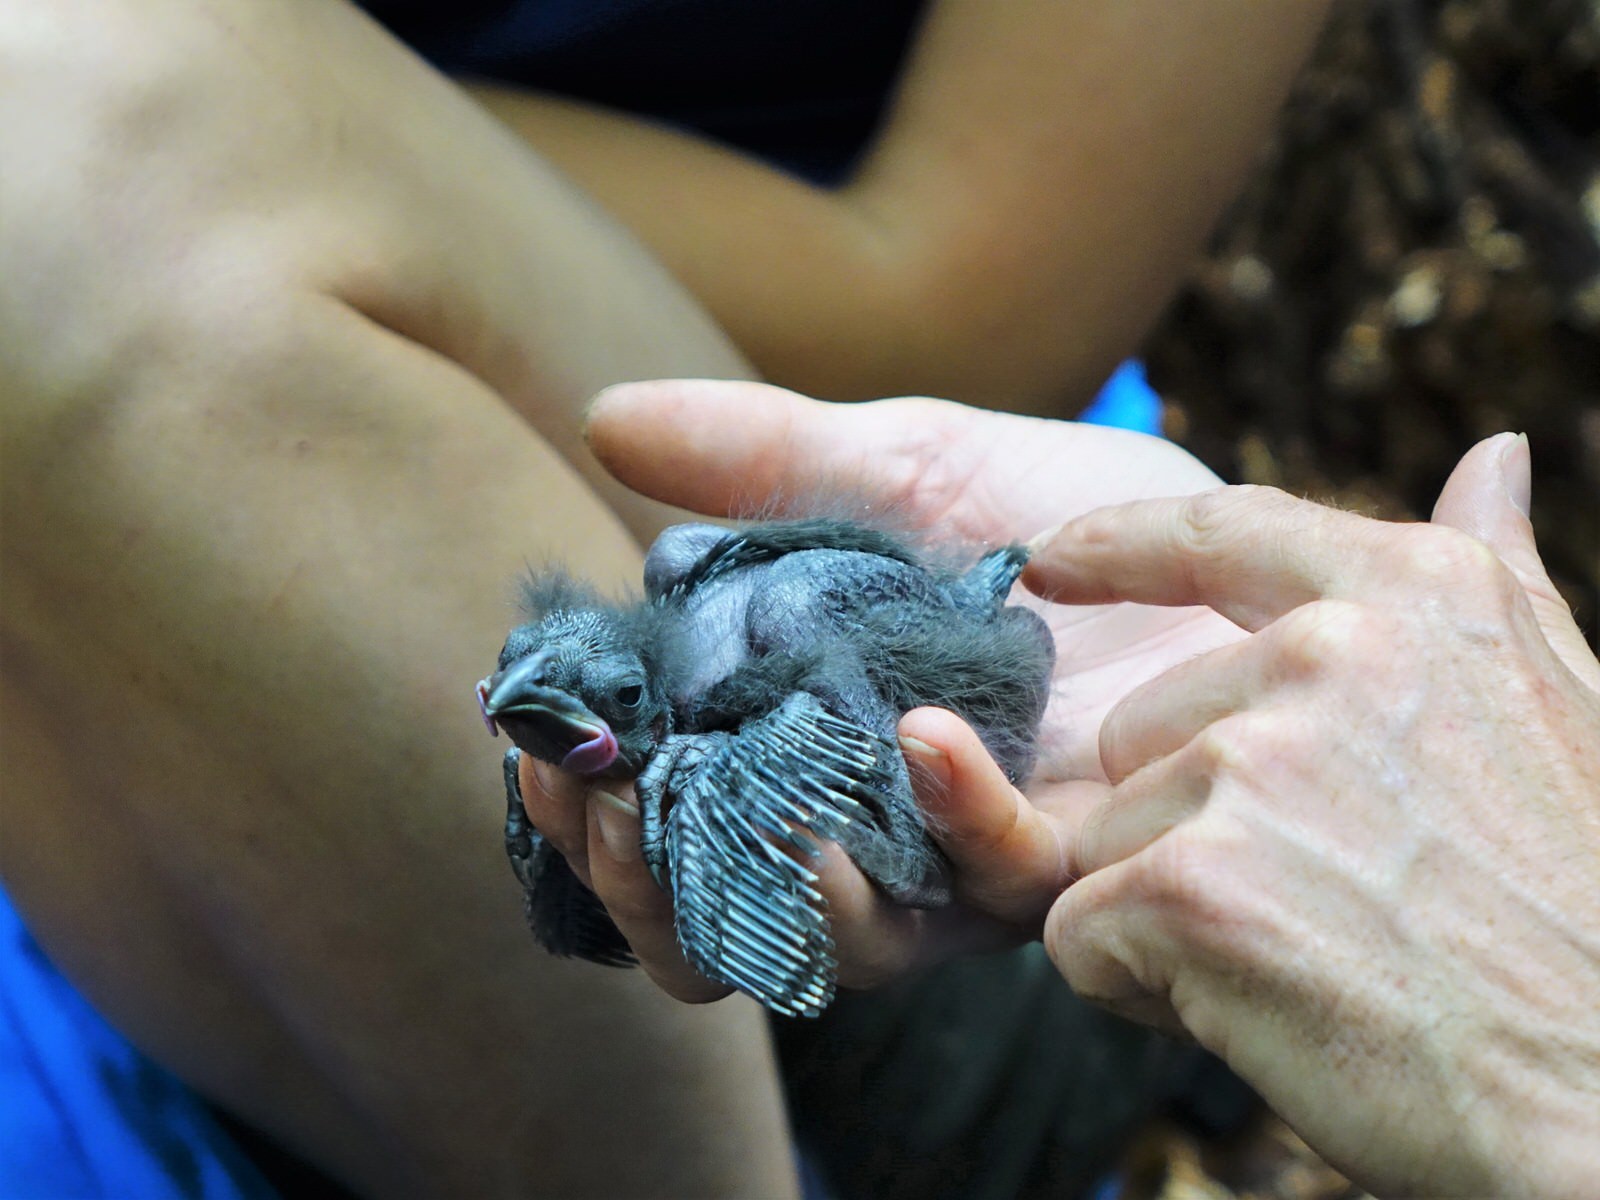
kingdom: Animalia
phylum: Chordata
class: Aves
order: Passeriformes
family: Callaeatidae
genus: Callaeas
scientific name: Callaeas cinereus
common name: South island kokako
